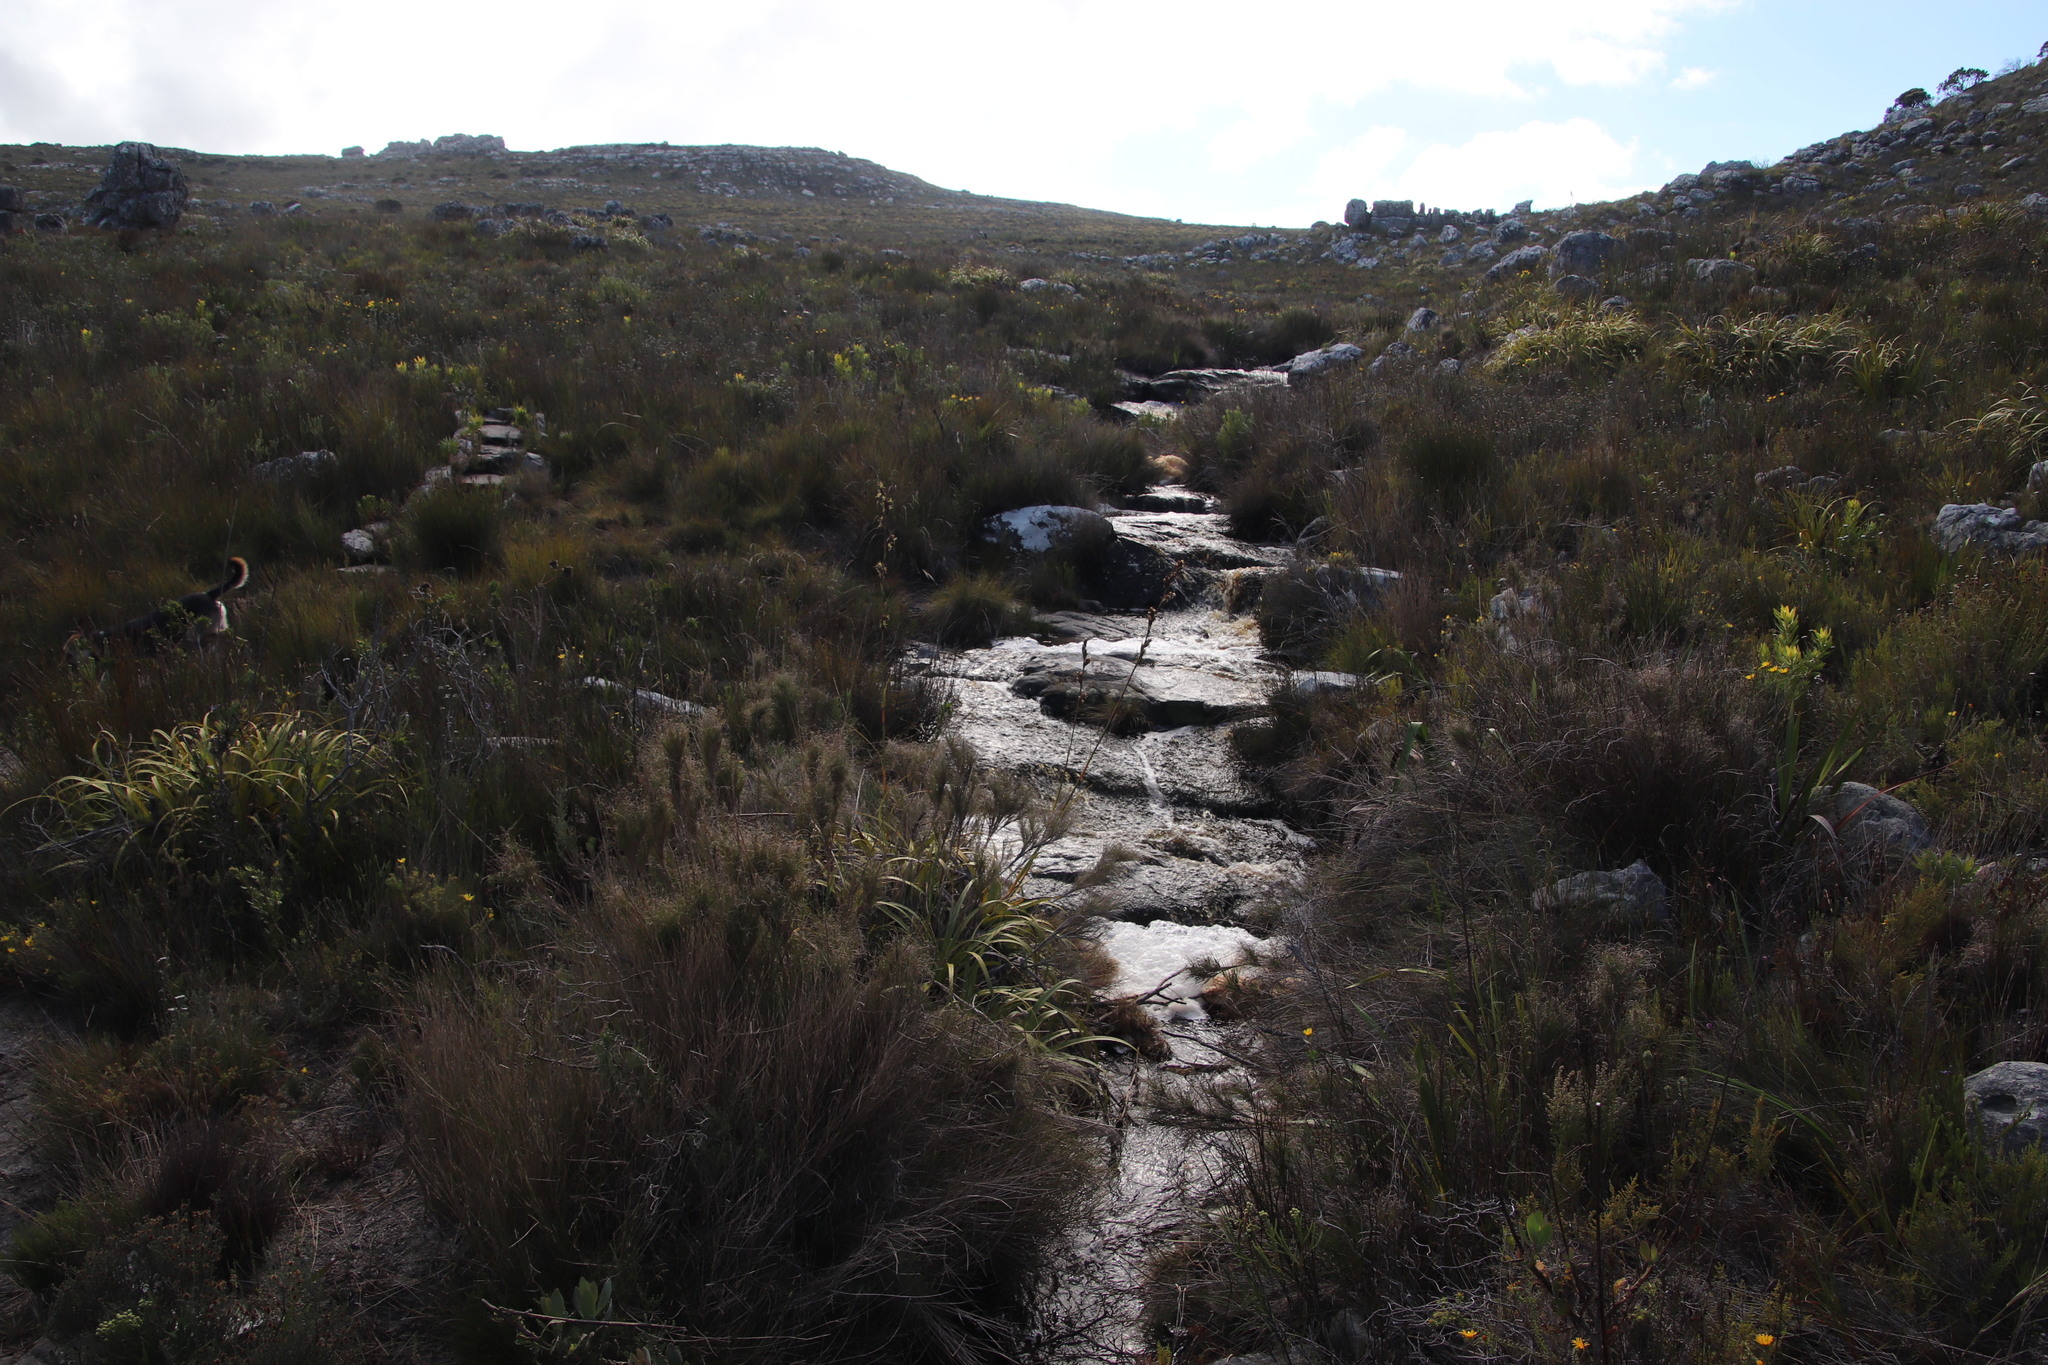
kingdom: Plantae
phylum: Tracheophyta
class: Liliopsida
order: Poales
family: Cyperaceae
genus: Tetraria
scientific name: Tetraria thermalis
